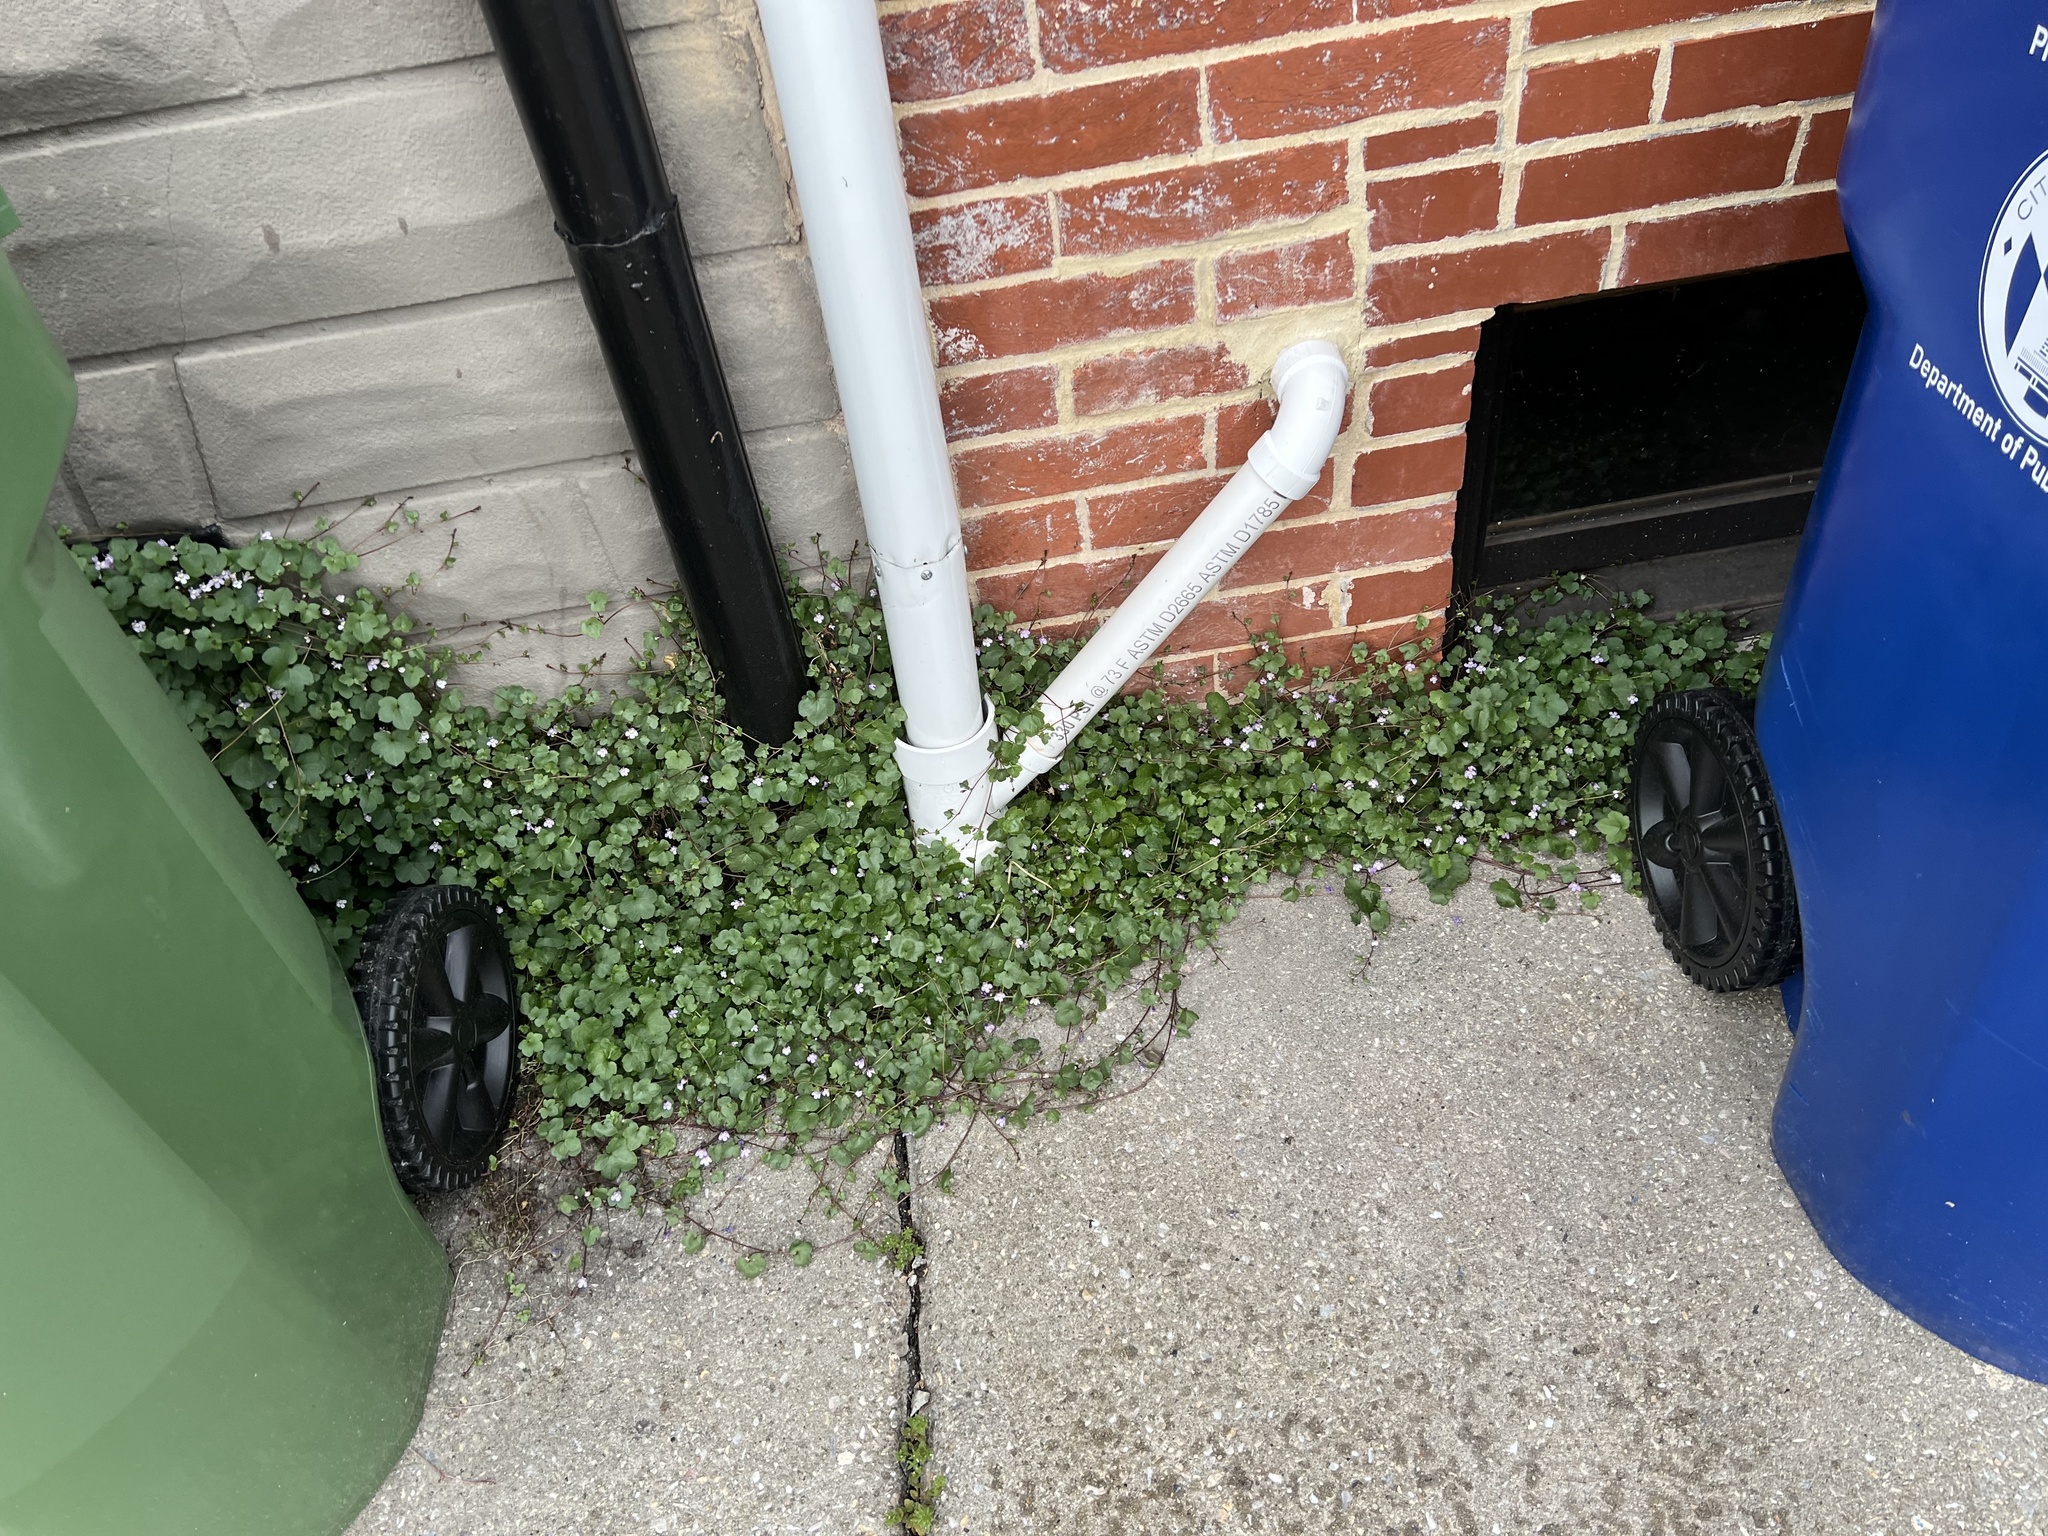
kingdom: Plantae
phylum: Tracheophyta
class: Magnoliopsida
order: Lamiales
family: Plantaginaceae
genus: Cymbalaria
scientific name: Cymbalaria muralis
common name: Ivy-leaved toadflax
